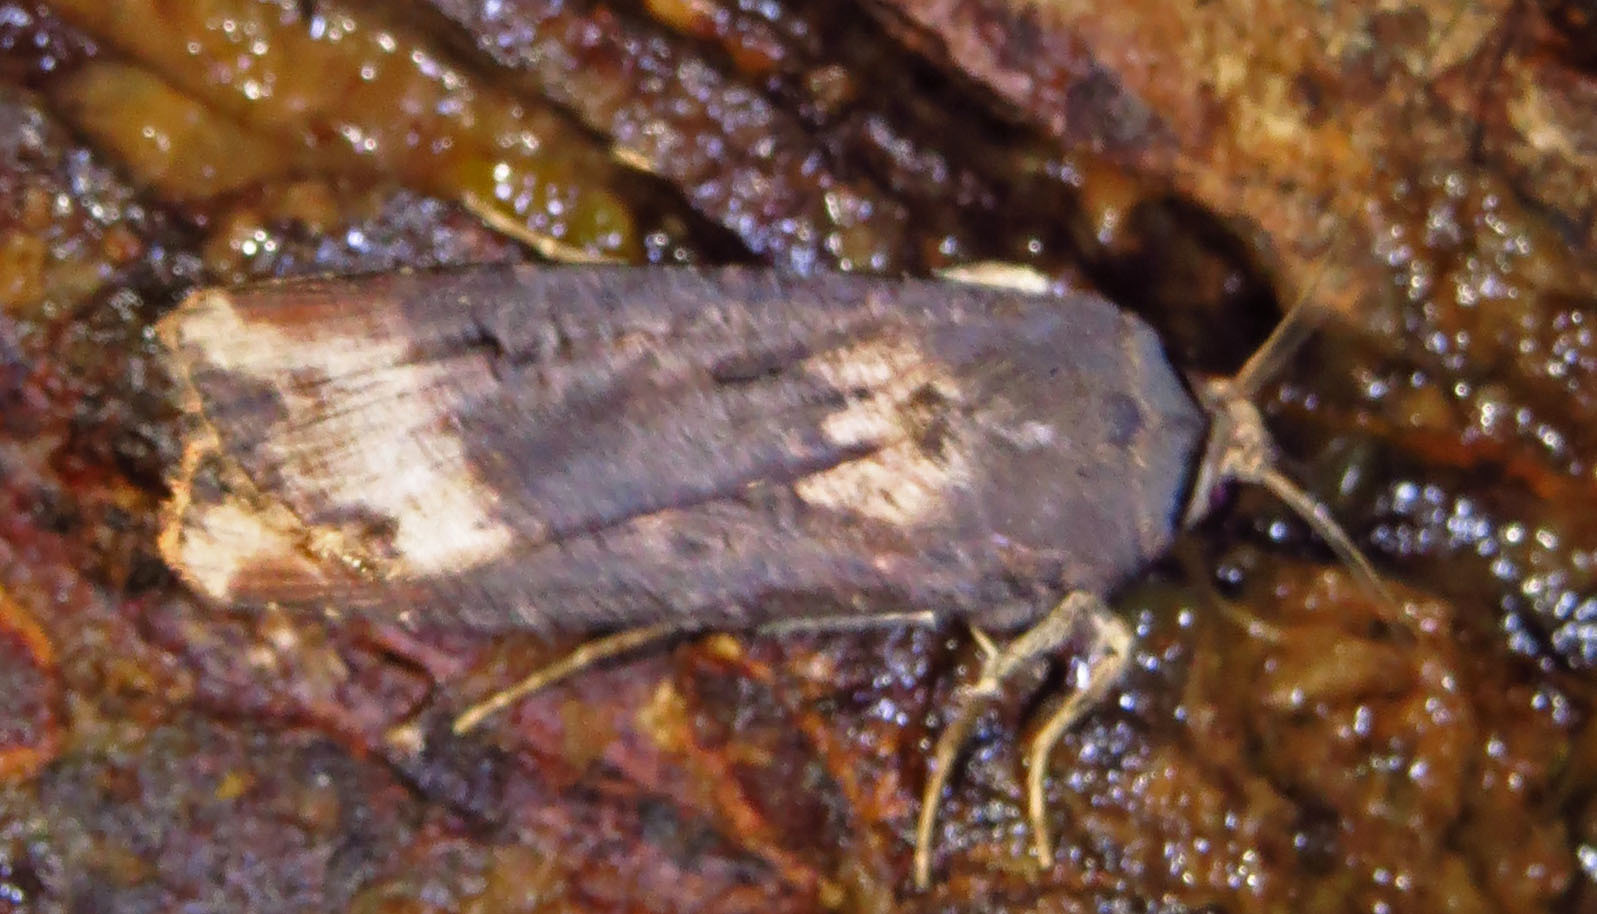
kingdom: Animalia
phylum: Arthropoda
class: Insecta
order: Lepidoptera
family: Noctuidae
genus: Agrotis
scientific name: Agrotis ipsilon
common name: Dark sword-grass
